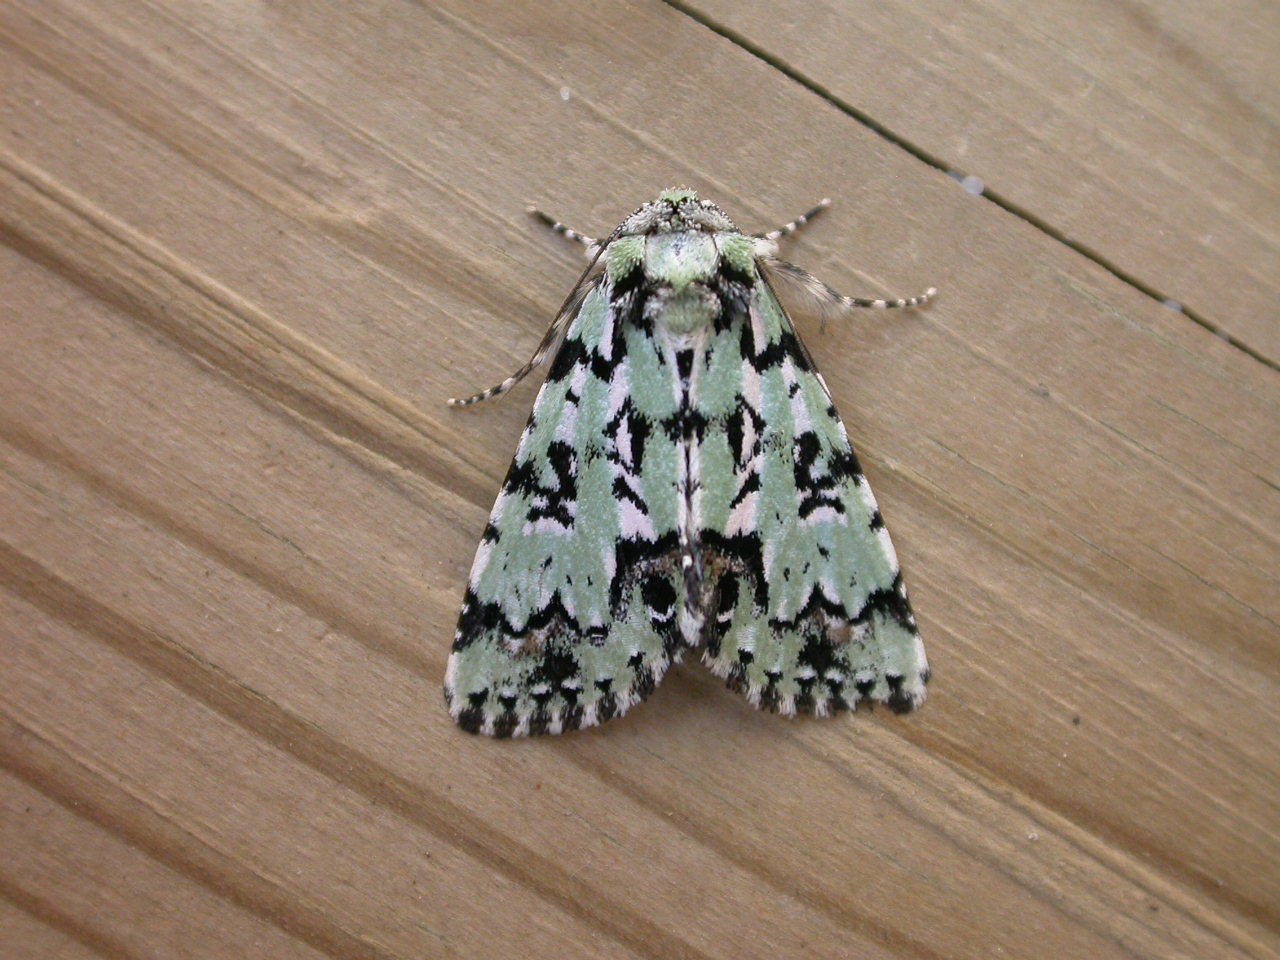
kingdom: Animalia
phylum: Arthropoda
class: Insecta
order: Lepidoptera
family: Noctuidae
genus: Moma
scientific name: Moma alpium
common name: Scarce merveille du jour
